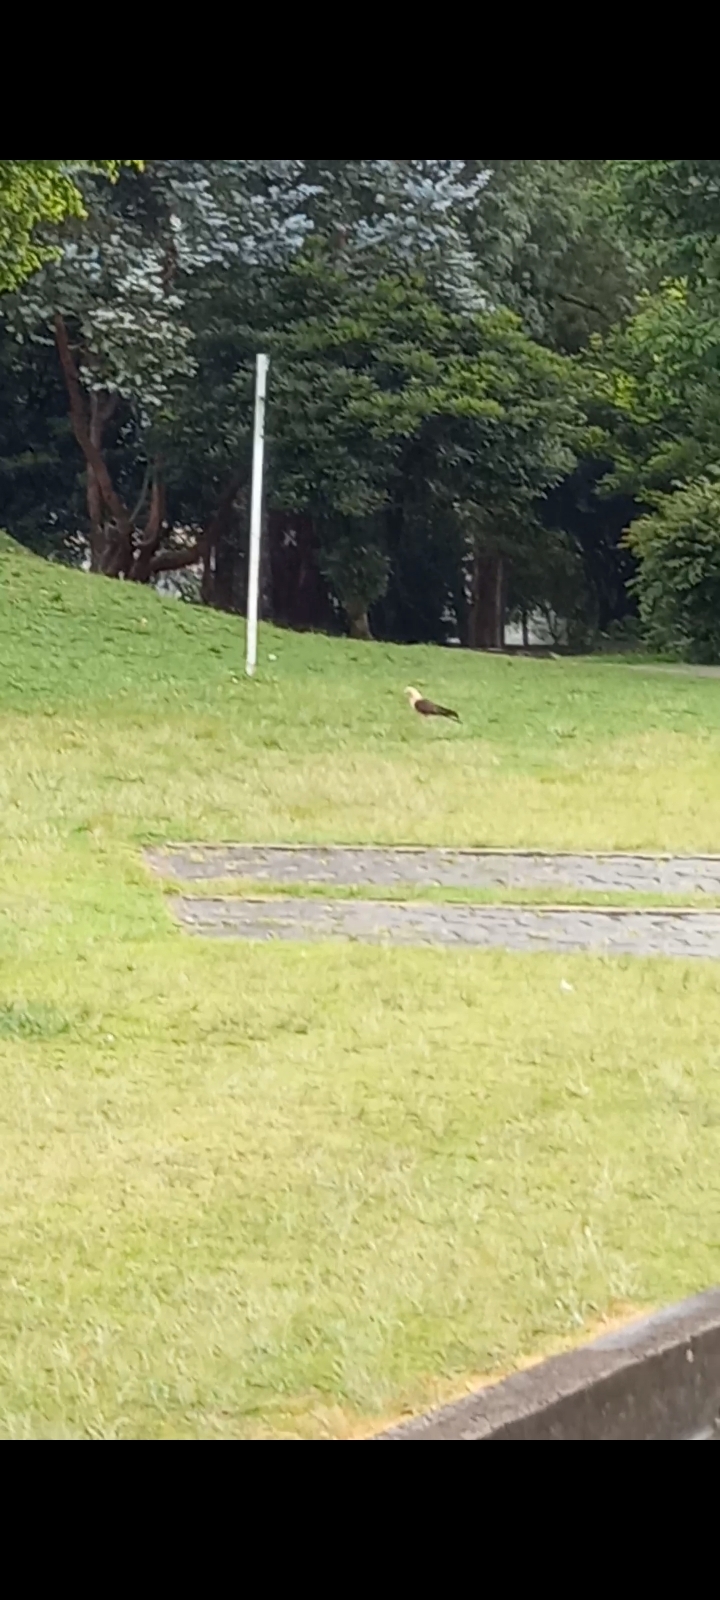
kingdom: Animalia
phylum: Chordata
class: Aves
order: Falconiformes
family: Falconidae
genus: Daptrius
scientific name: Daptrius
